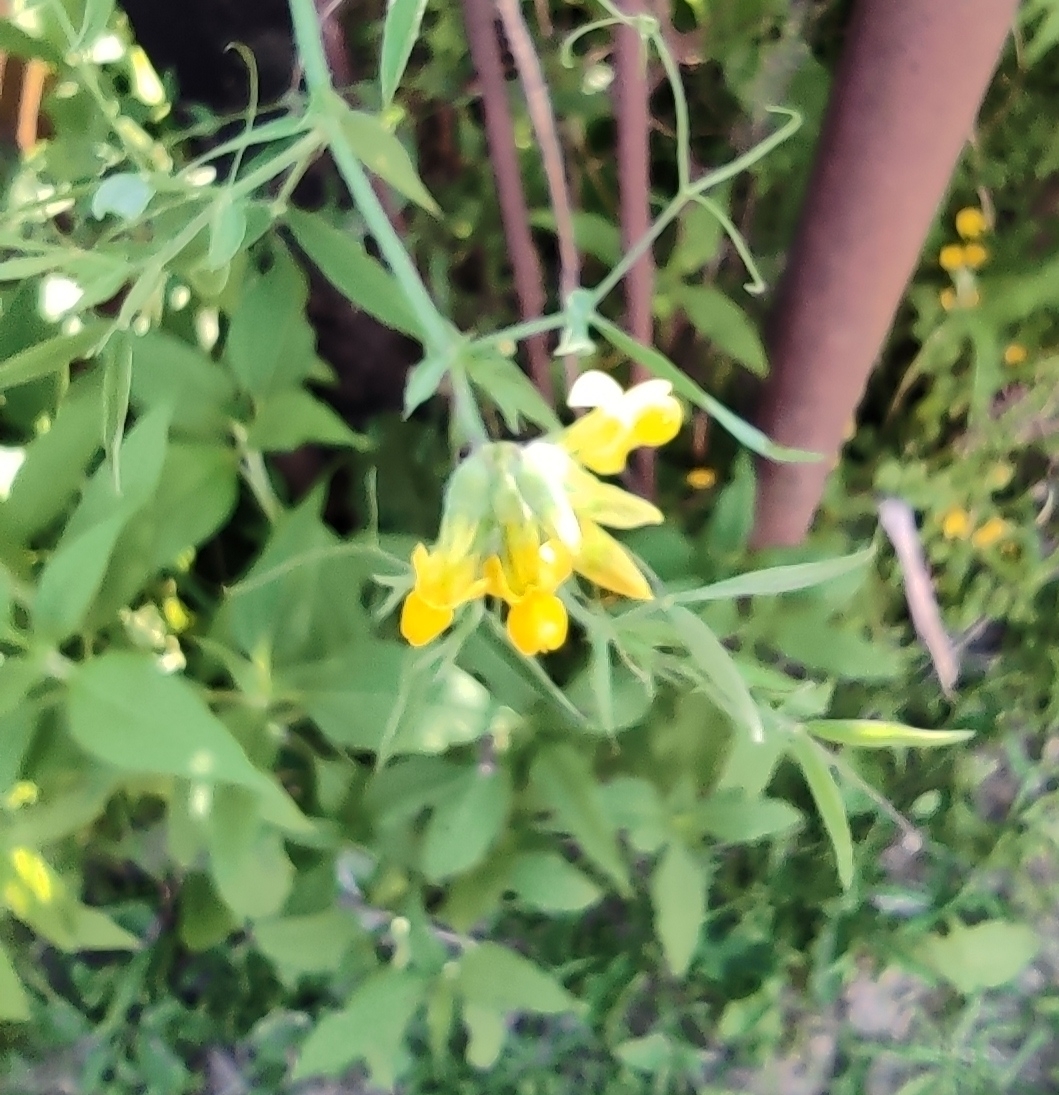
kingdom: Plantae
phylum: Tracheophyta
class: Magnoliopsida
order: Fabales
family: Fabaceae
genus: Lathyrus
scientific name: Lathyrus pratensis
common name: Meadow vetchling
